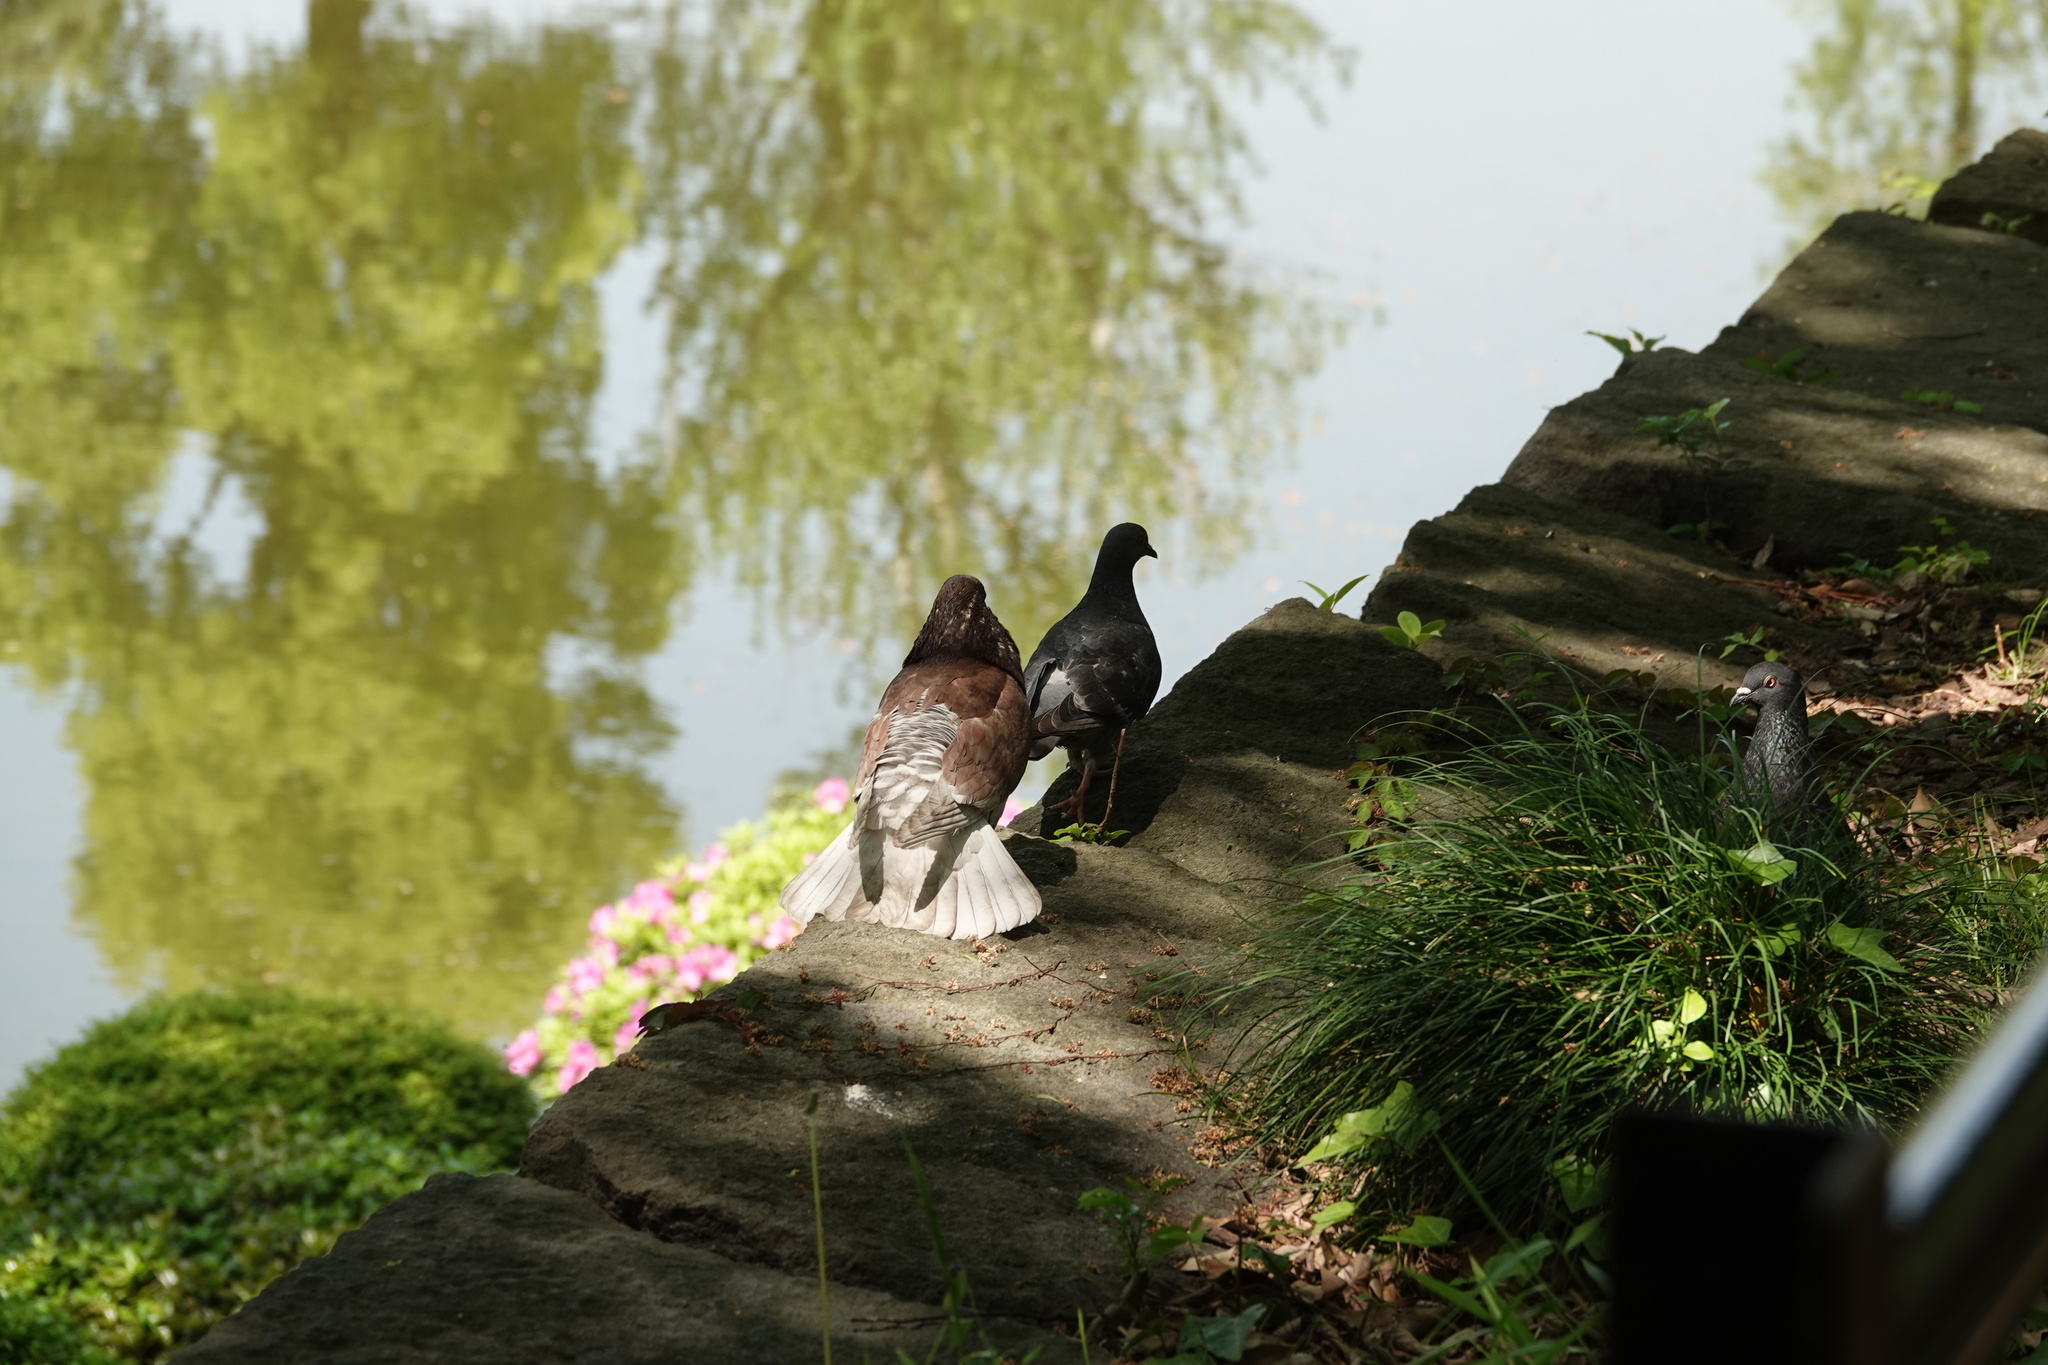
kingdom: Animalia
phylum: Chordata
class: Aves
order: Columbiformes
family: Columbidae
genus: Columba
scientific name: Columba livia
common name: Rock pigeon
